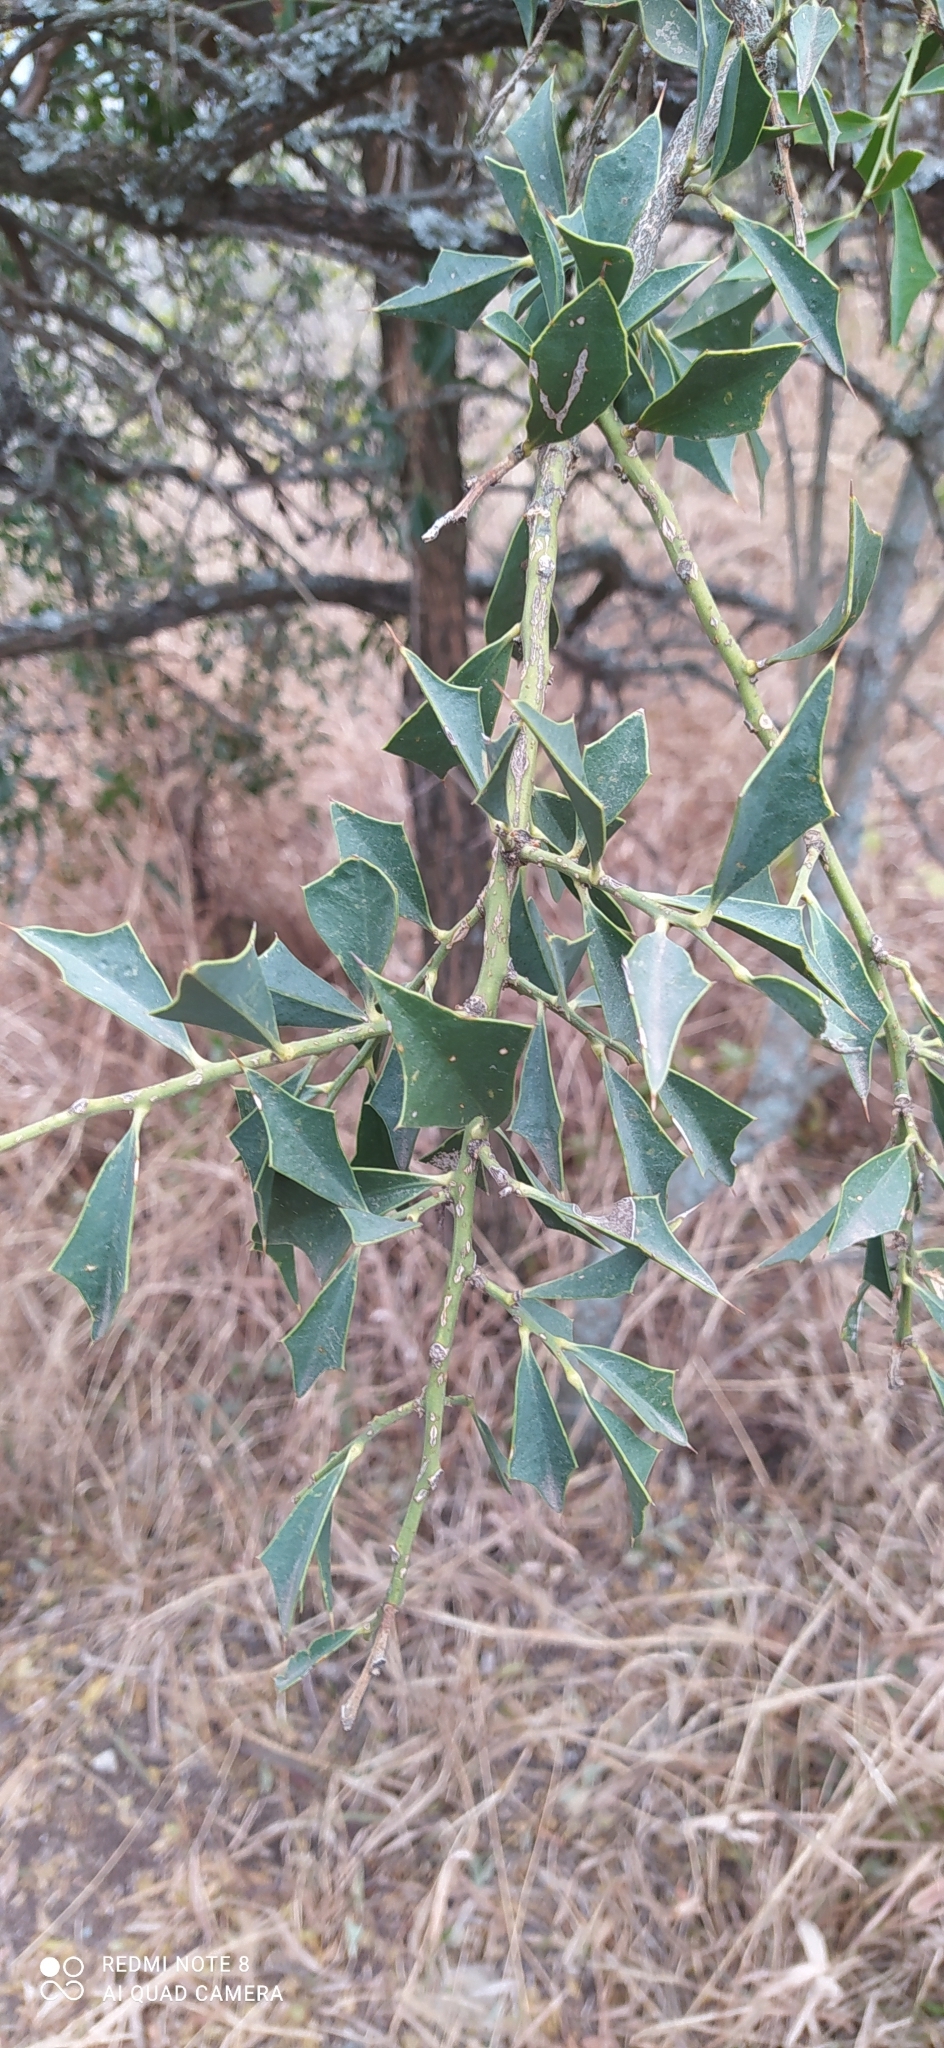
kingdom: Plantae
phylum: Tracheophyta
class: Magnoliopsida
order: Santalales
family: Cervantesiaceae
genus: Jodina
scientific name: Jodina rhombifolia
